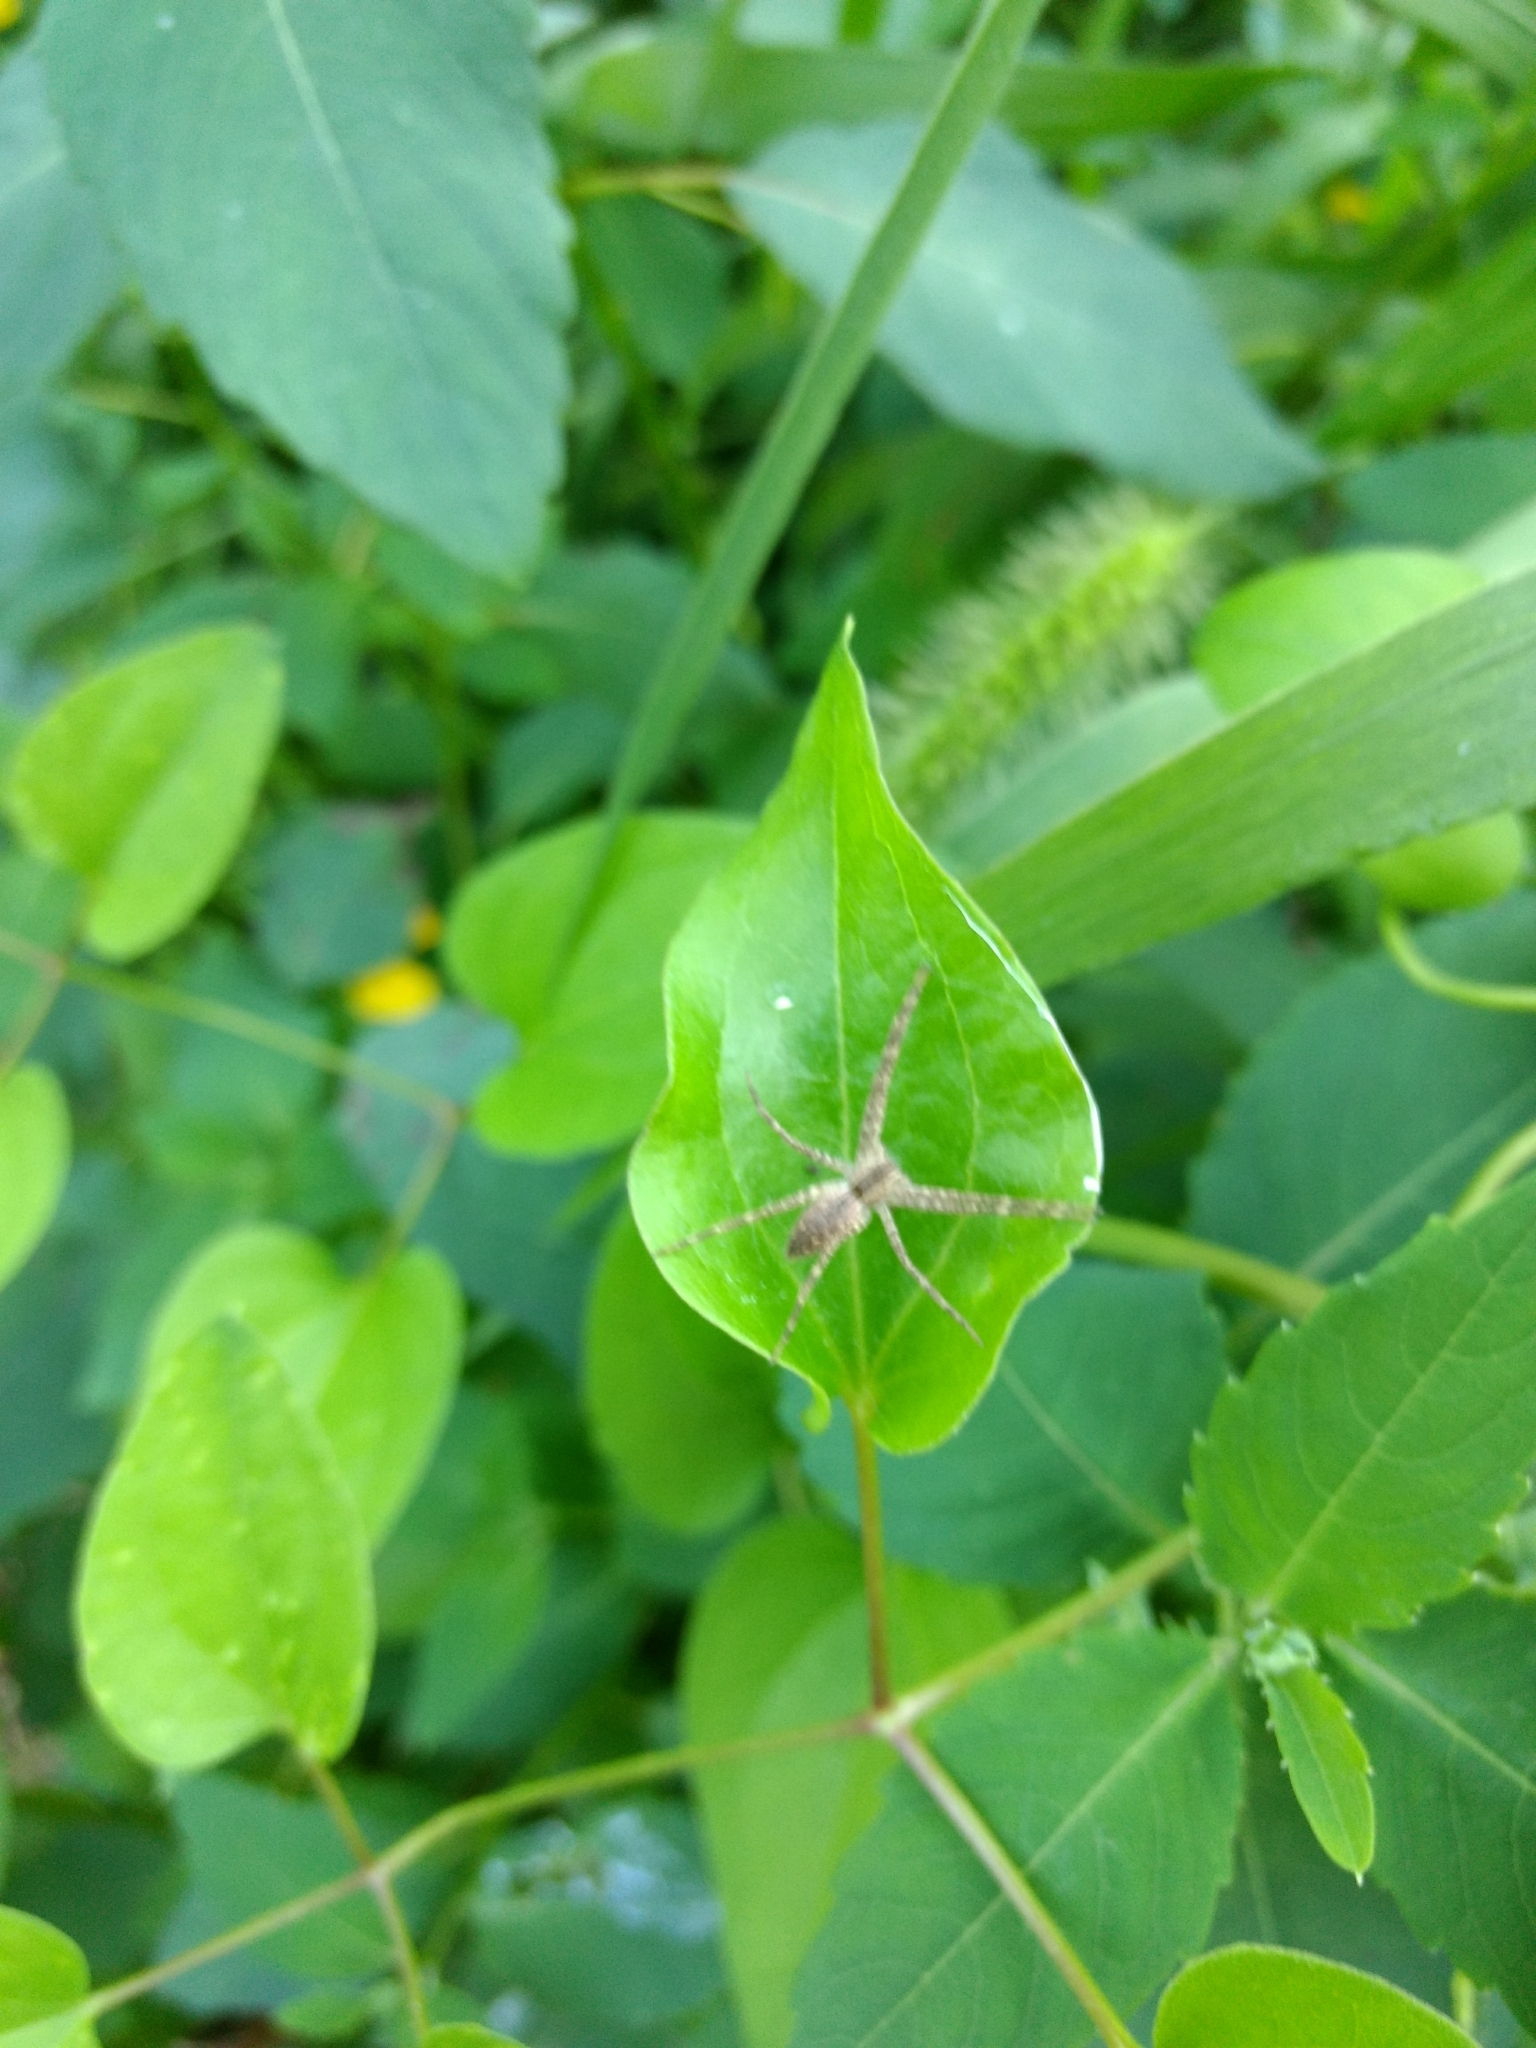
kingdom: Animalia
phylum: Arthropoda
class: Arachnida
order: Araneae
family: Pisauridae
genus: Pisaurina
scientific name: Pisaurina mira
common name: American nursery web spider
